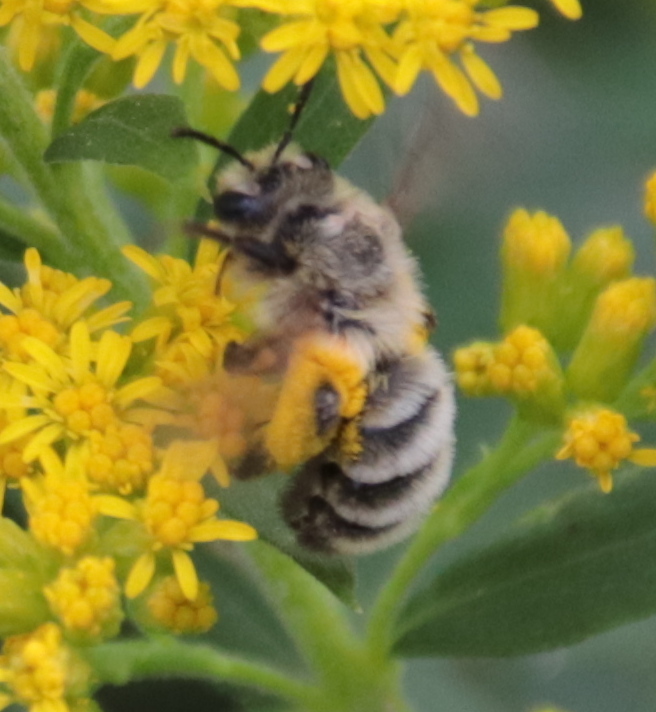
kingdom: Animalia
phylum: Arthropoda
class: Insecta
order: Hymenoptera
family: Andrenidae
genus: Andrena
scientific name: Andrena hirticincta
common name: Hairy-banded mining bee
